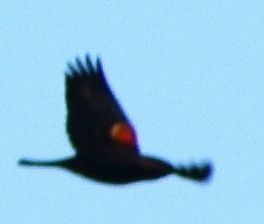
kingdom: Animalia
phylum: Chordata
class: Aves
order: Passeriformes
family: Icteridae
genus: Agelaius
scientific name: Agelaius phoeniceus
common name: Red-winged blackbird
